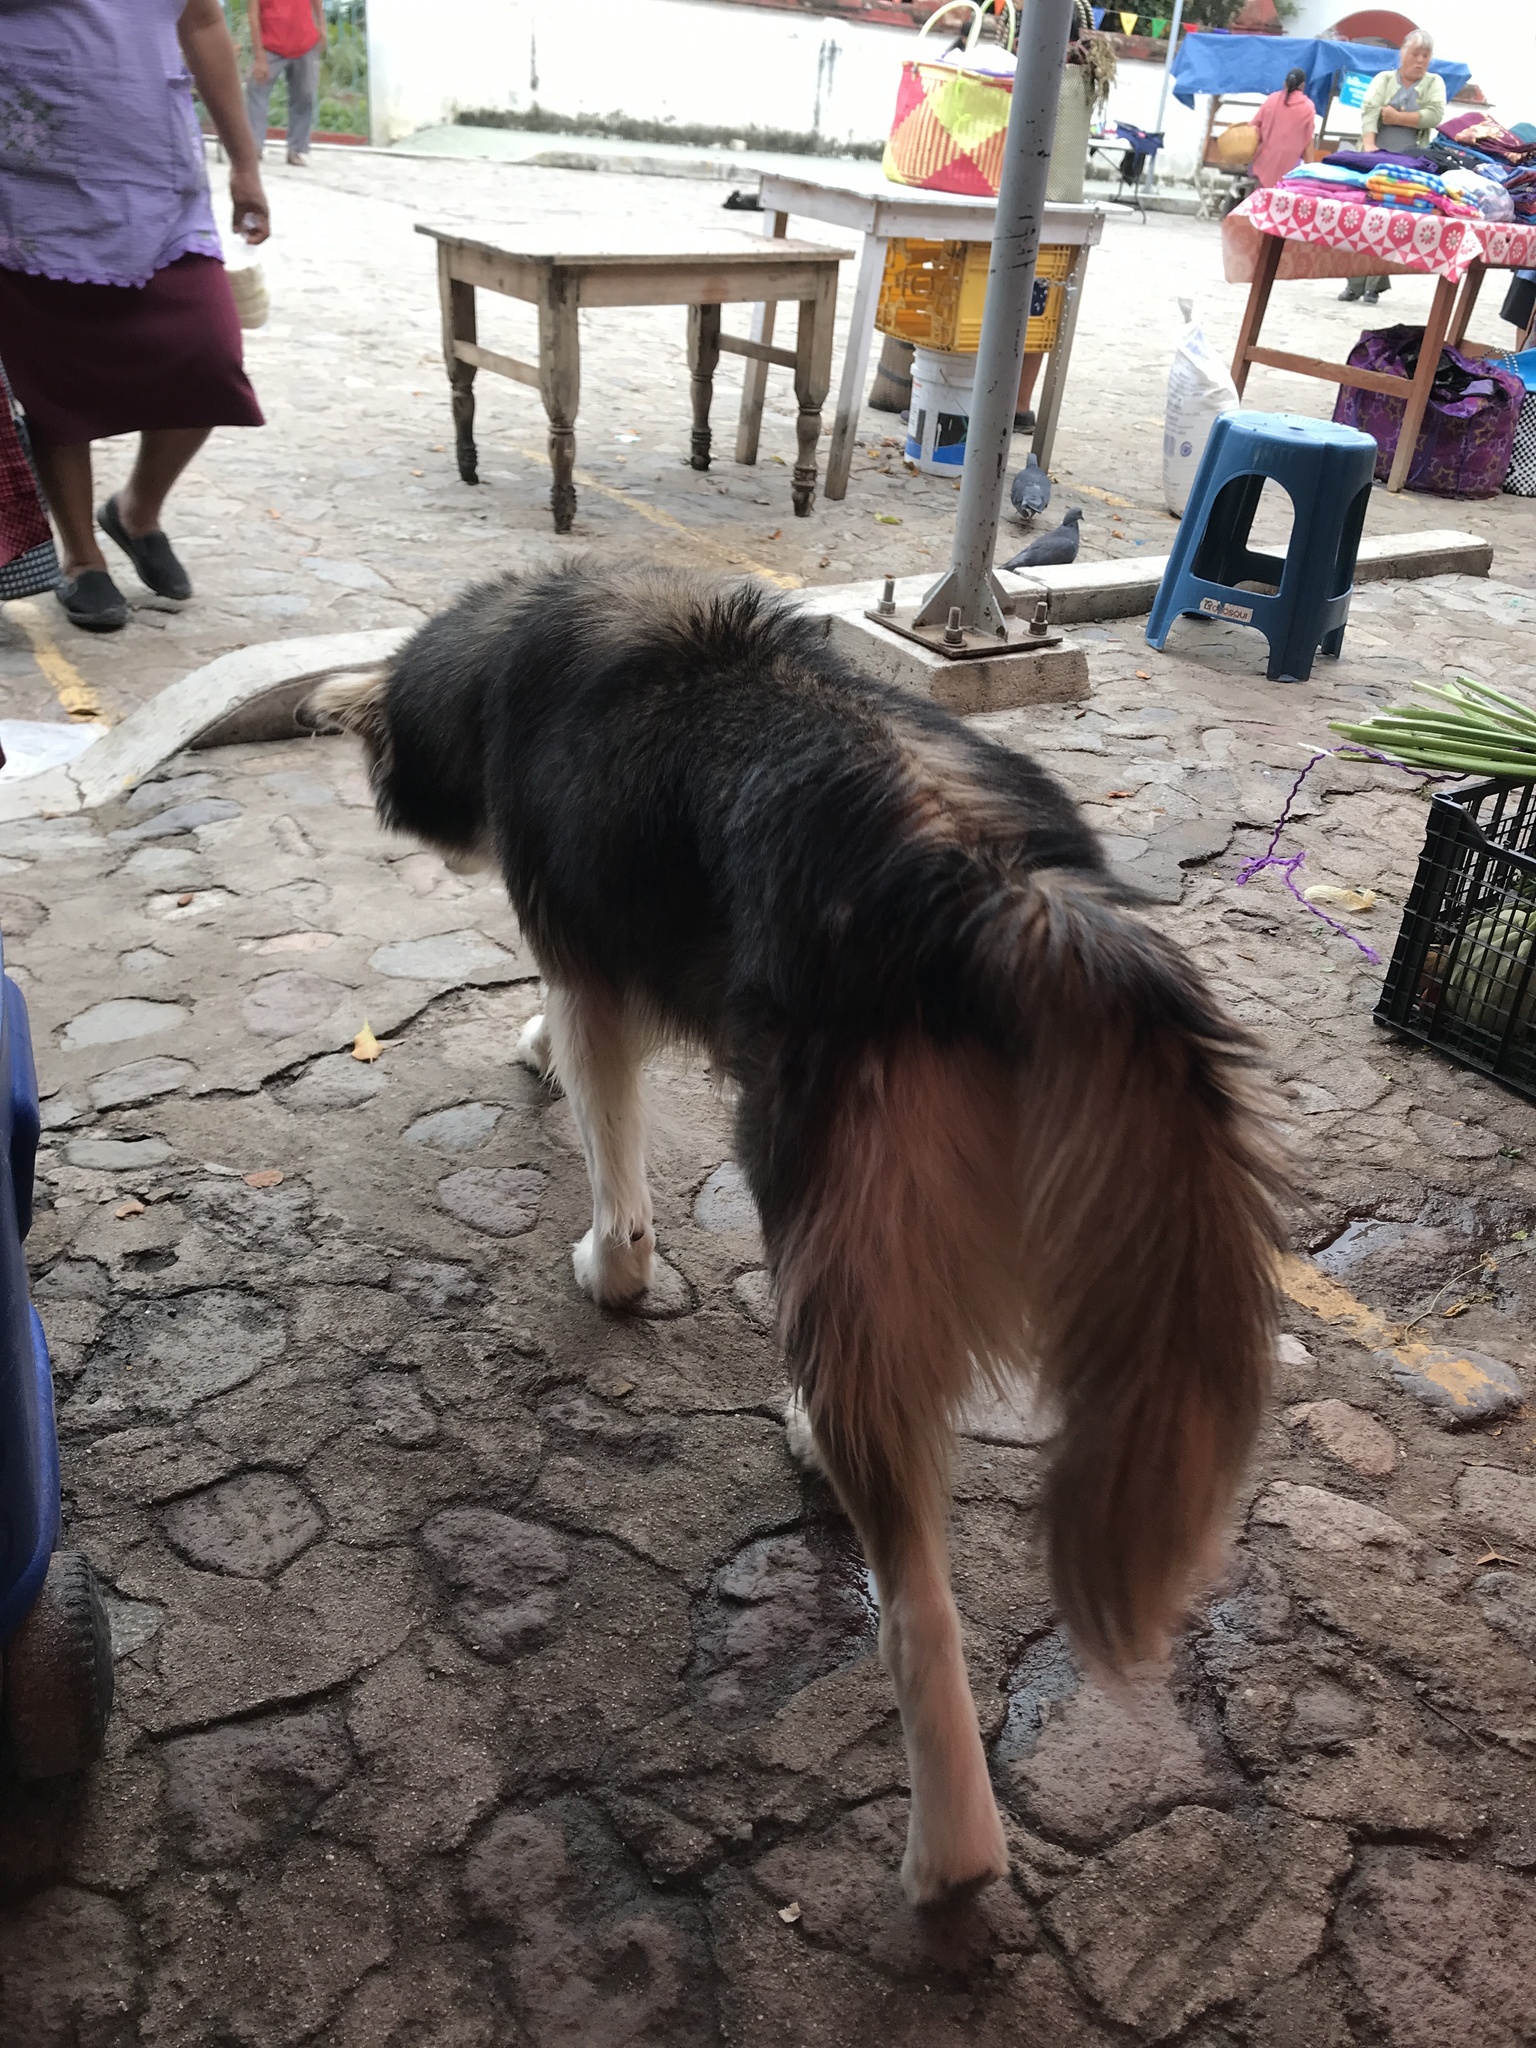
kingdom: Animalia
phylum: Chordata
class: Mammalia
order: Carnivora
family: Canidae
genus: Canis
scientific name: Canis lupus
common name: Gray wolf
